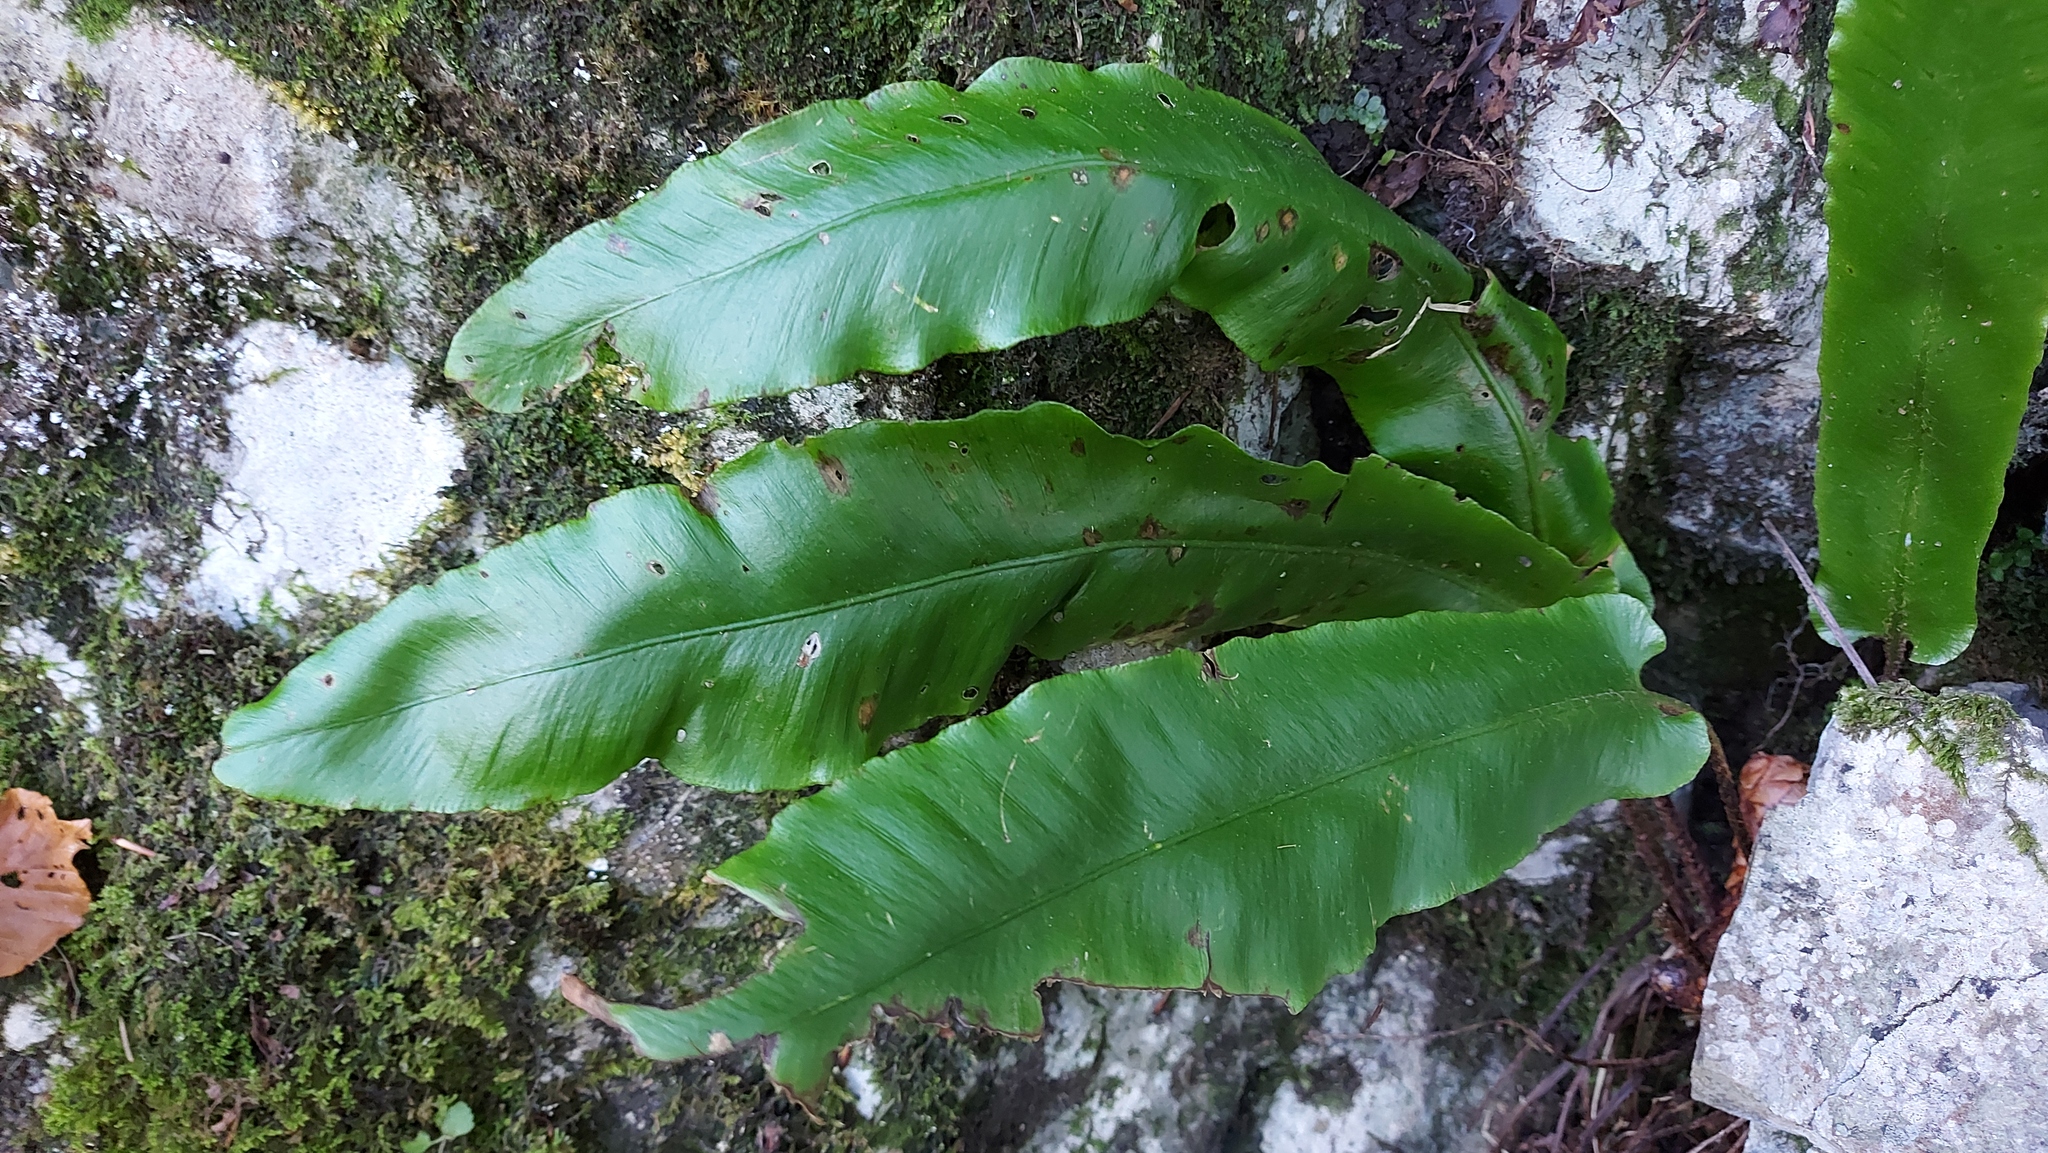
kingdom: Plantae
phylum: Tracheophyta
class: Polypodiopsida
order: Polypodiales
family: Aspleniaceae
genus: Asplenium
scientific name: Asplenium scolopendrium
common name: Hart's-tongue fern
